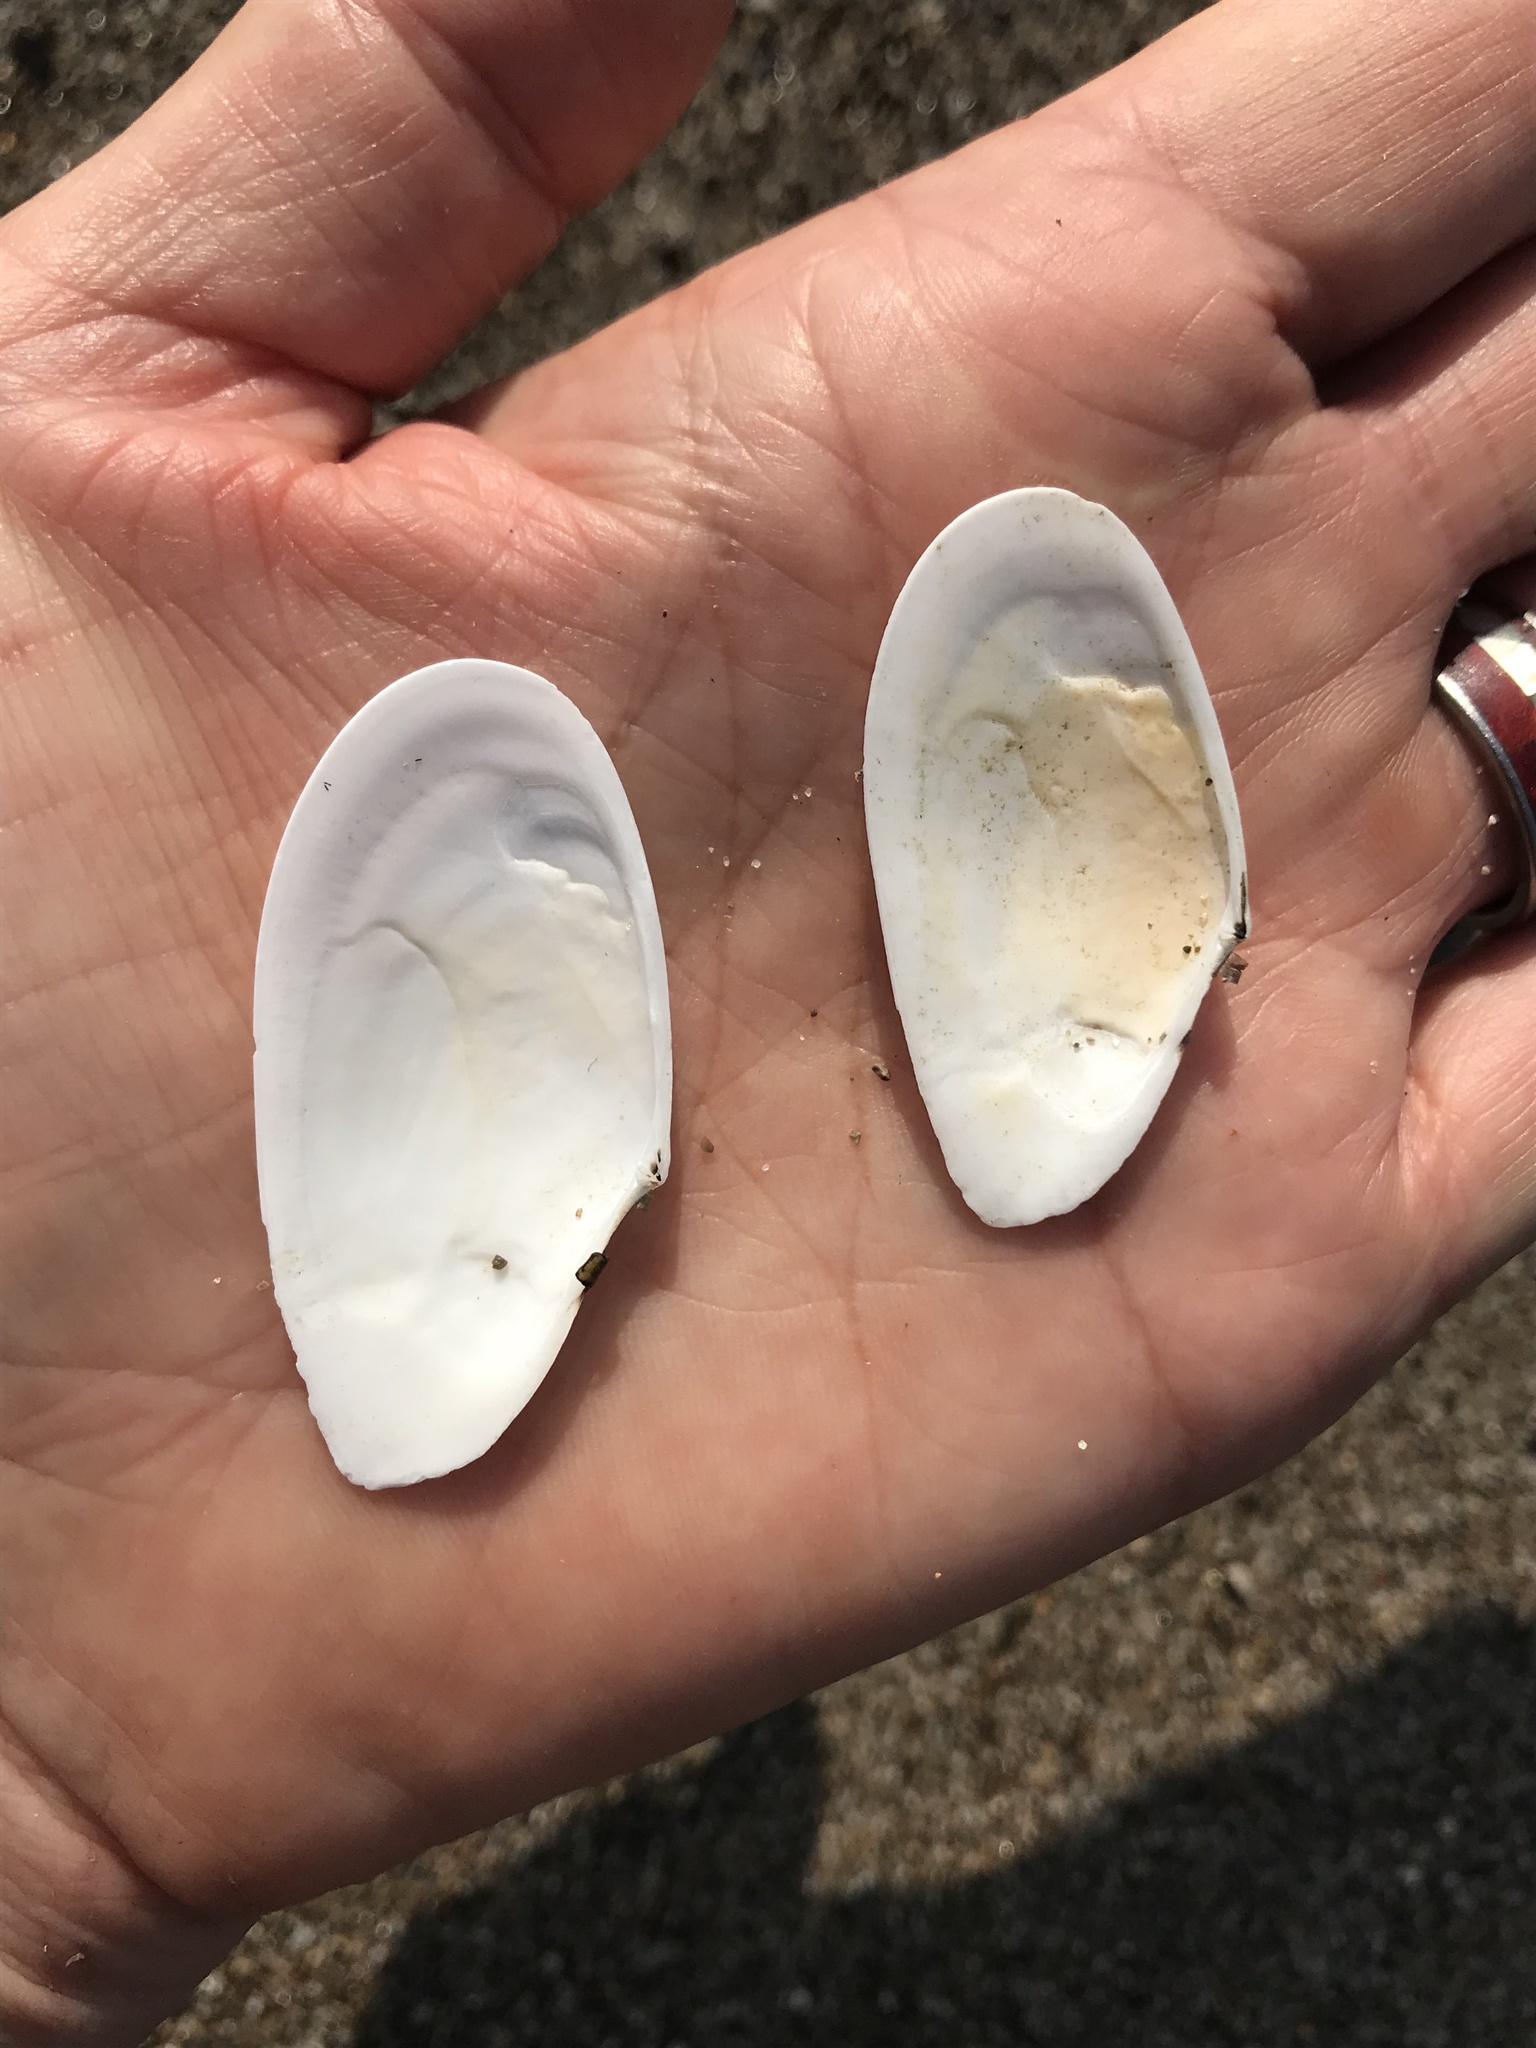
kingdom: Animalia
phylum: Mollusca
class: Bivalvia
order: Cardiida
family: Tellinidae
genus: Megangulus
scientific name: Megangulus bodegensis
